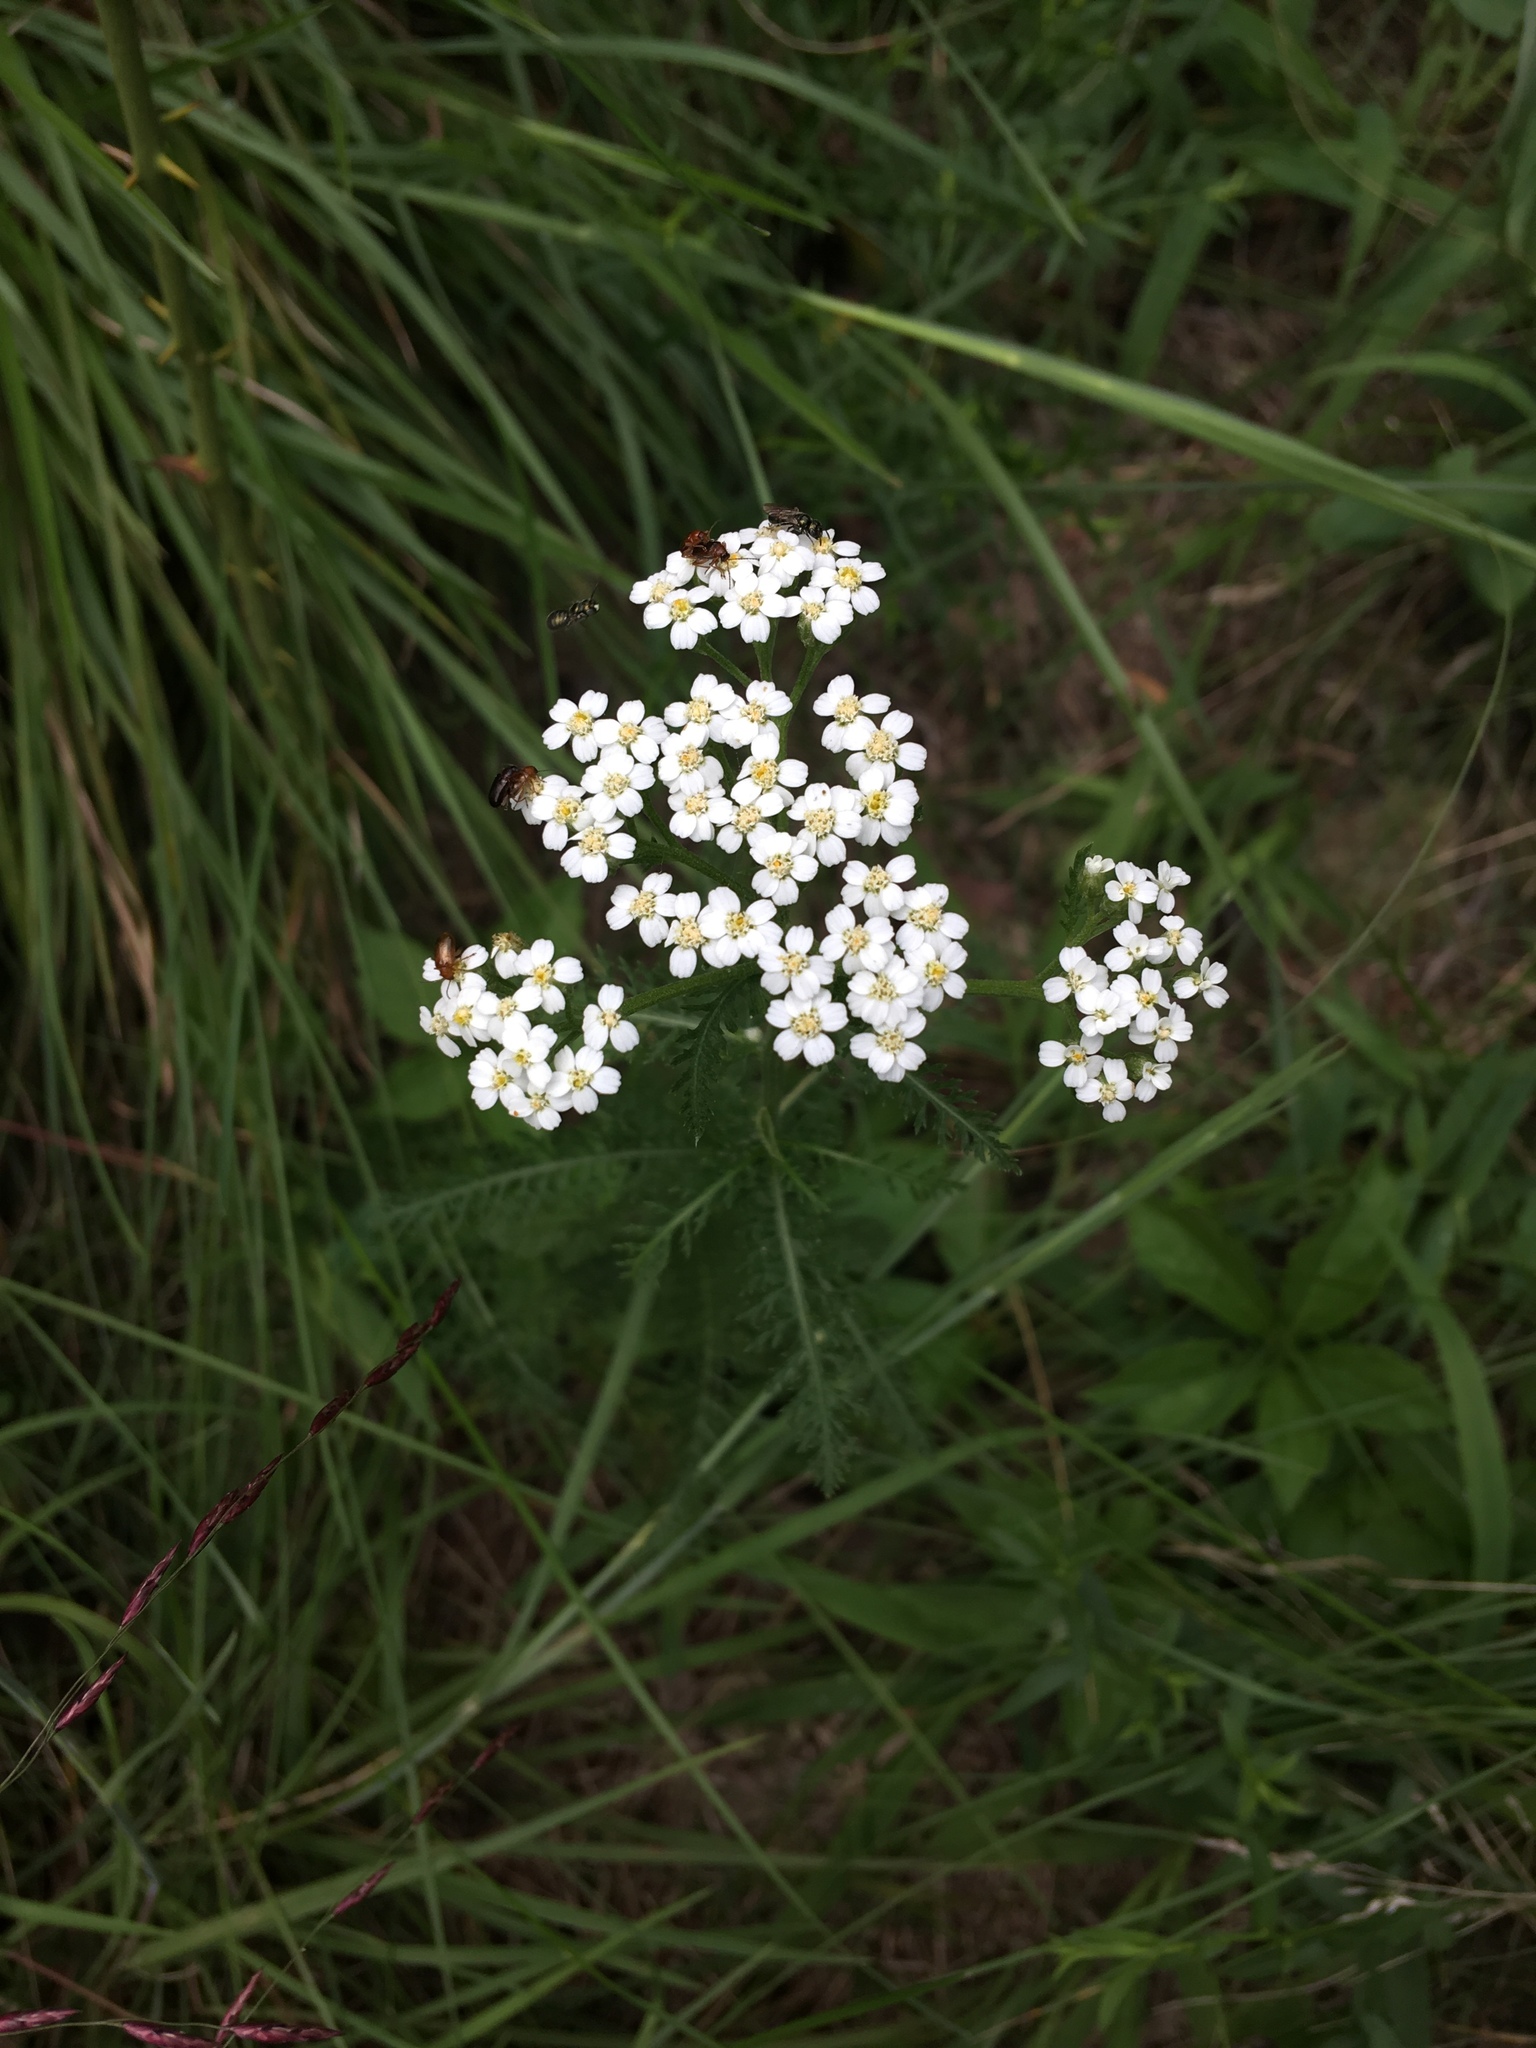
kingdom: Plantae
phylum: Tracheophyta
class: Magnoliopsida
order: Asterales
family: Asteraceae
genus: Achillea
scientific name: Achillea millefolium
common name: Yarrow
